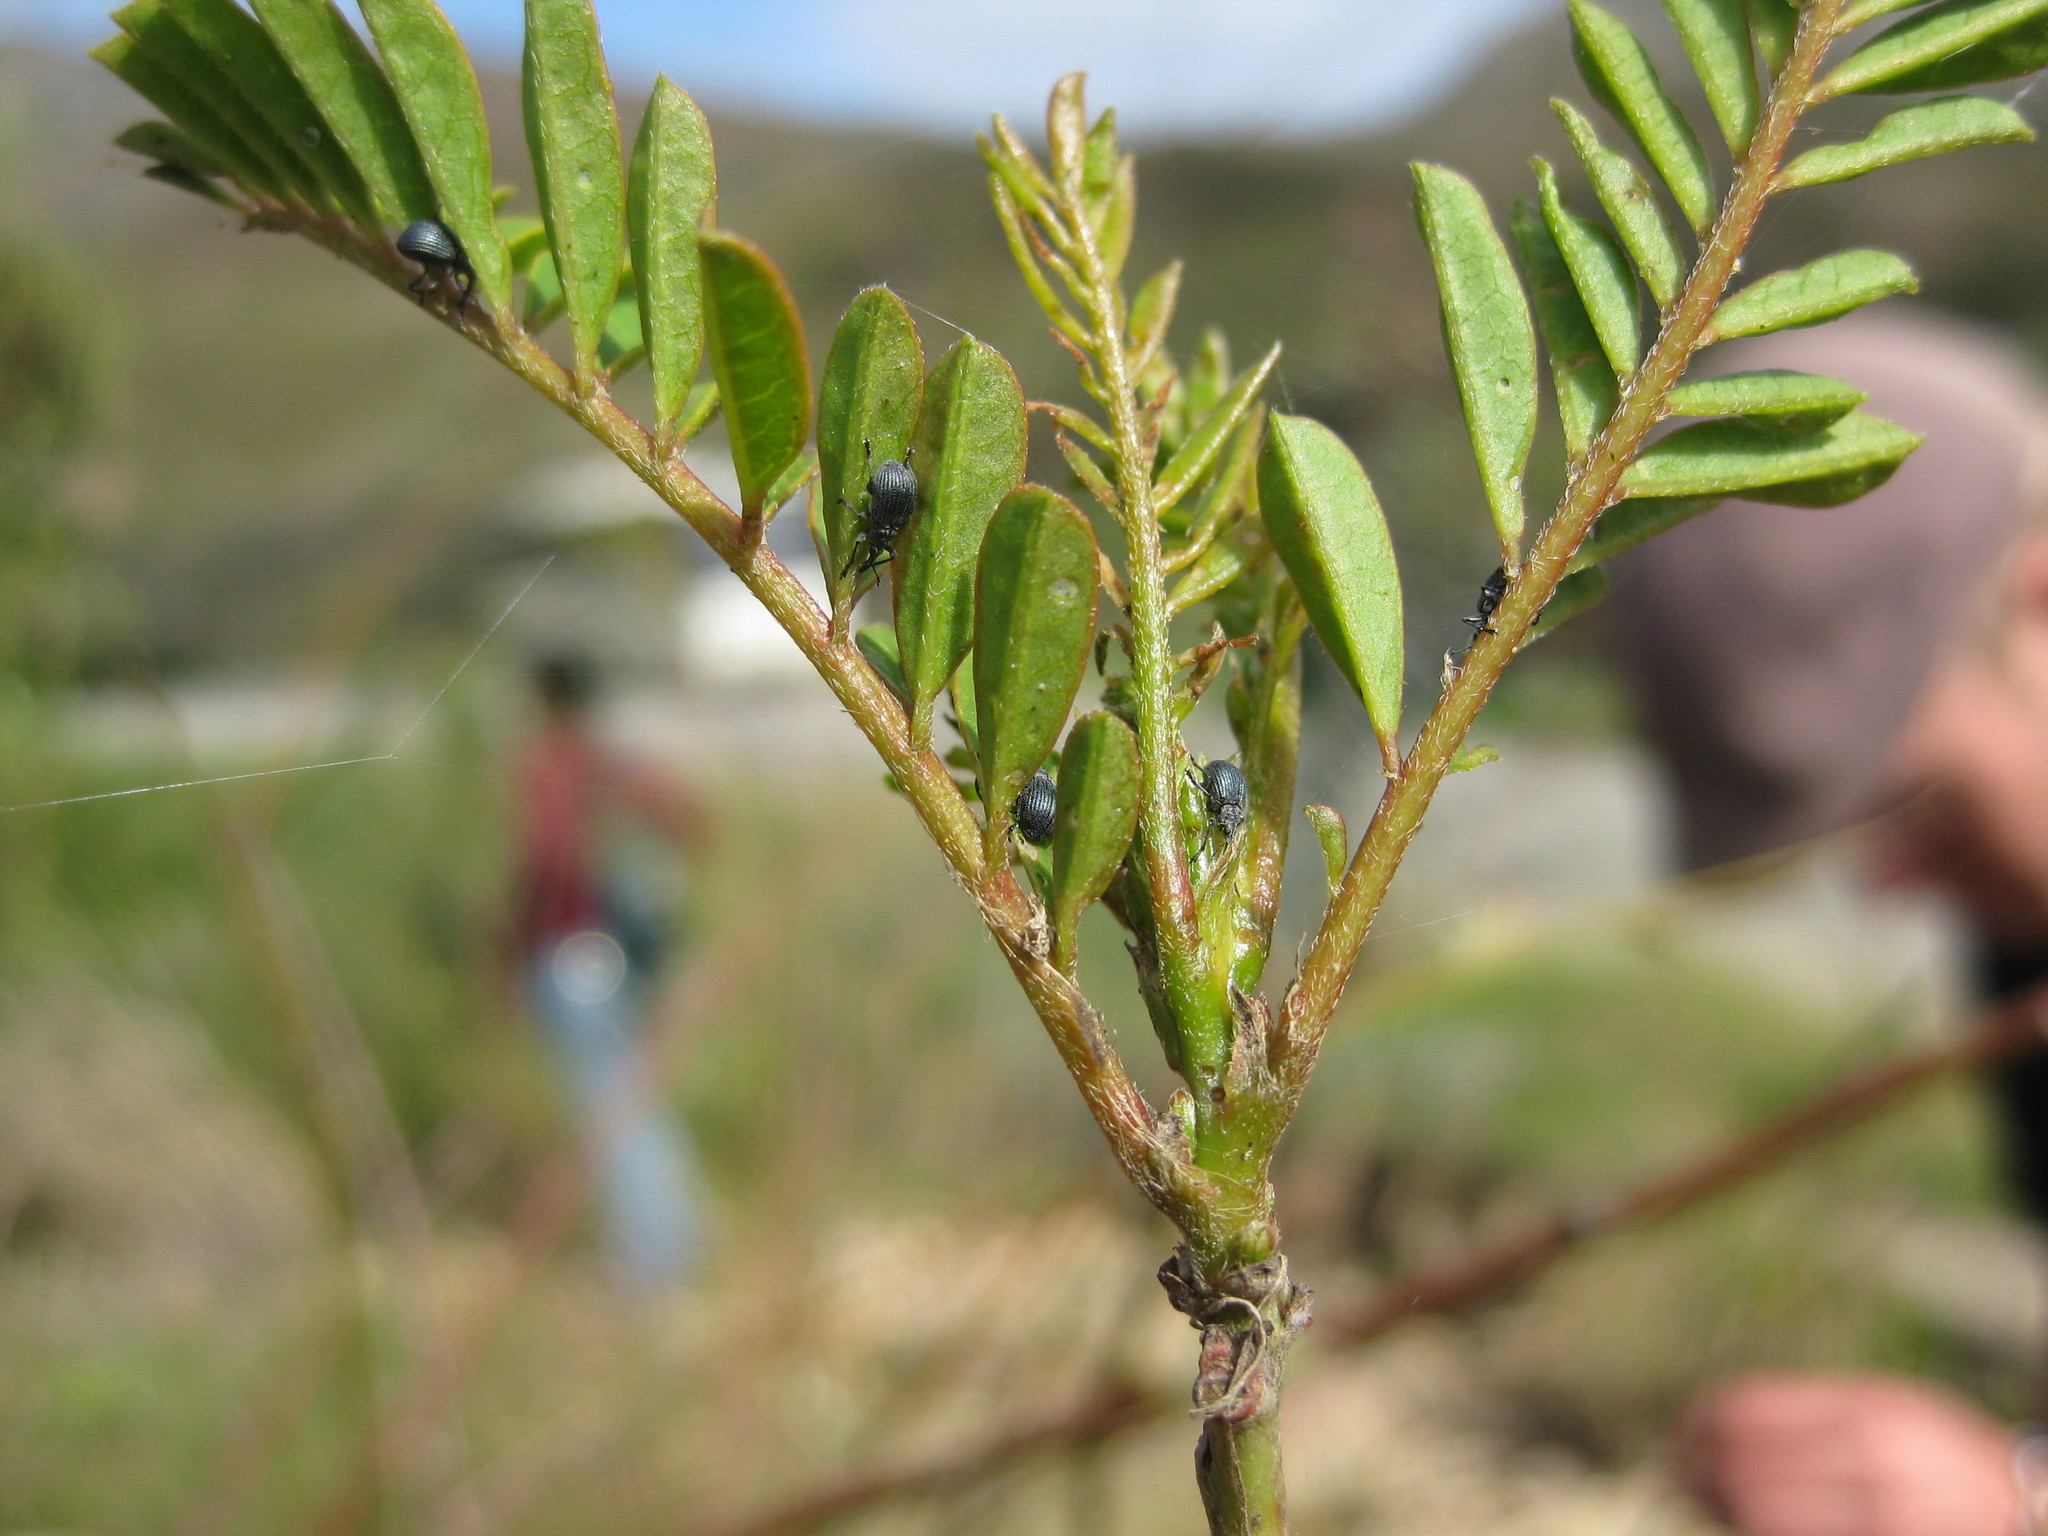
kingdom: Animalia
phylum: Arthropoda
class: Insecta
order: Coleoptera
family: Brentidae
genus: Trichapion
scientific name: Trichapion
